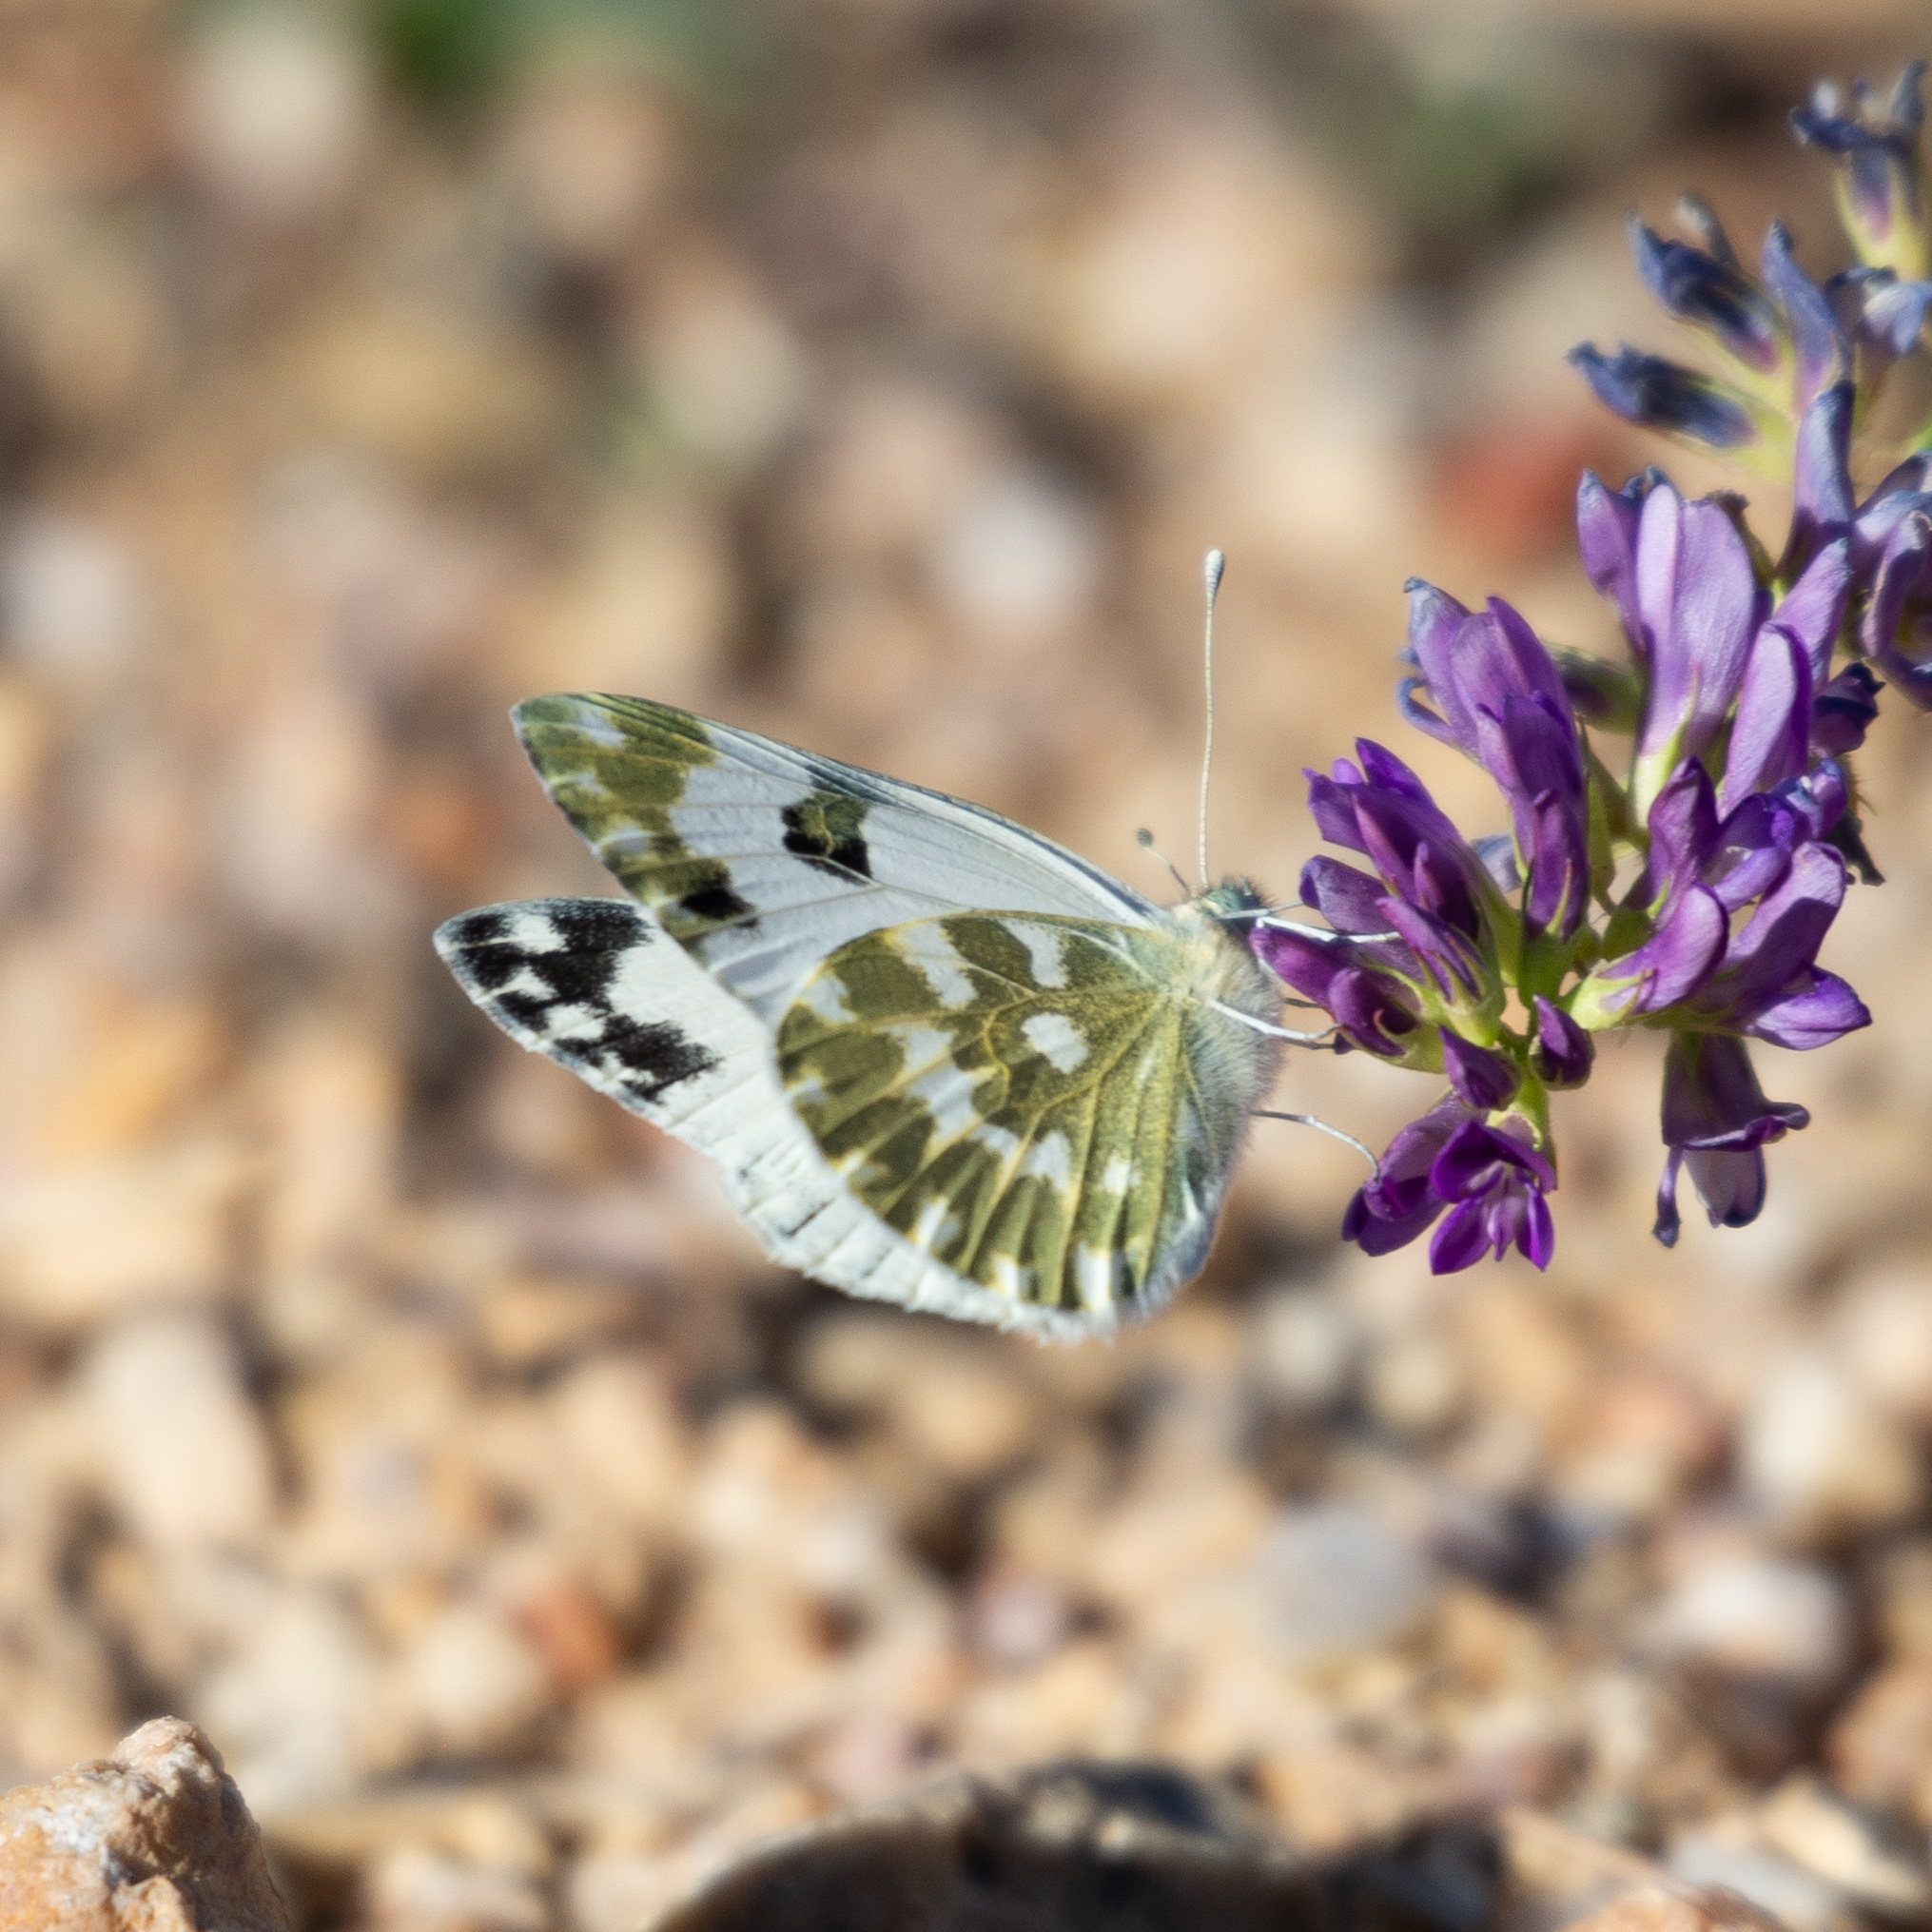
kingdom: Animalia
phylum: Arthropoda
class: Insecta
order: Lepidoptera
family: Pieridae
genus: Pontia
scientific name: Pontia daplidice
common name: Bath white
